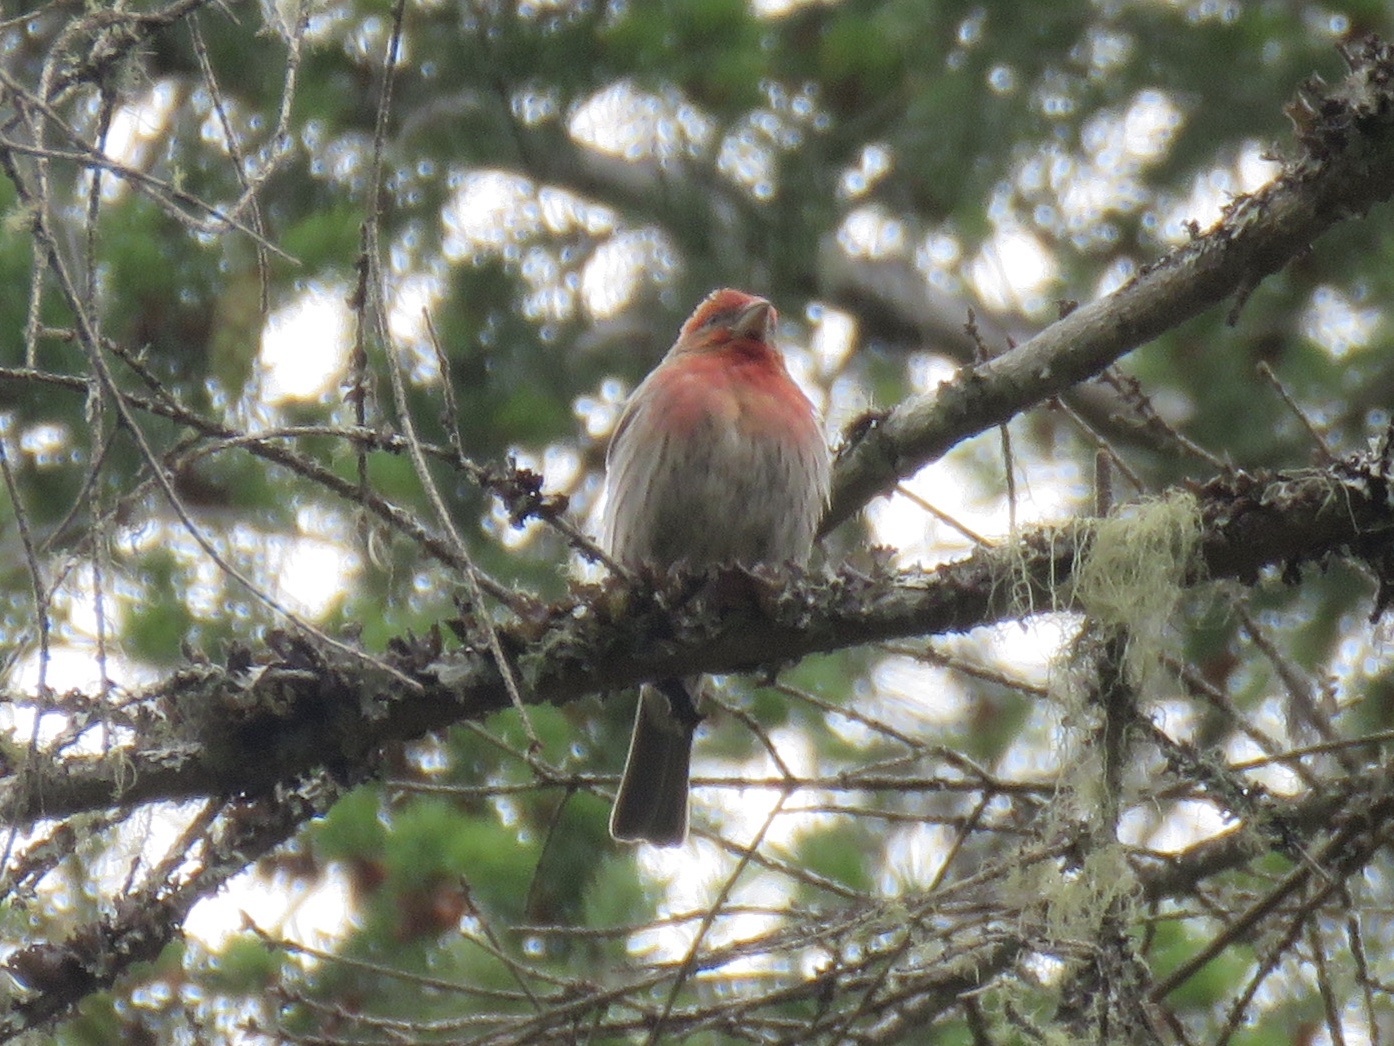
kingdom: Animalia
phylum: Chordata
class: Aves
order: Passeriformes
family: Fringillidae
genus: Haemorhous
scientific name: Haemorhous mexicanus
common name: House finch
